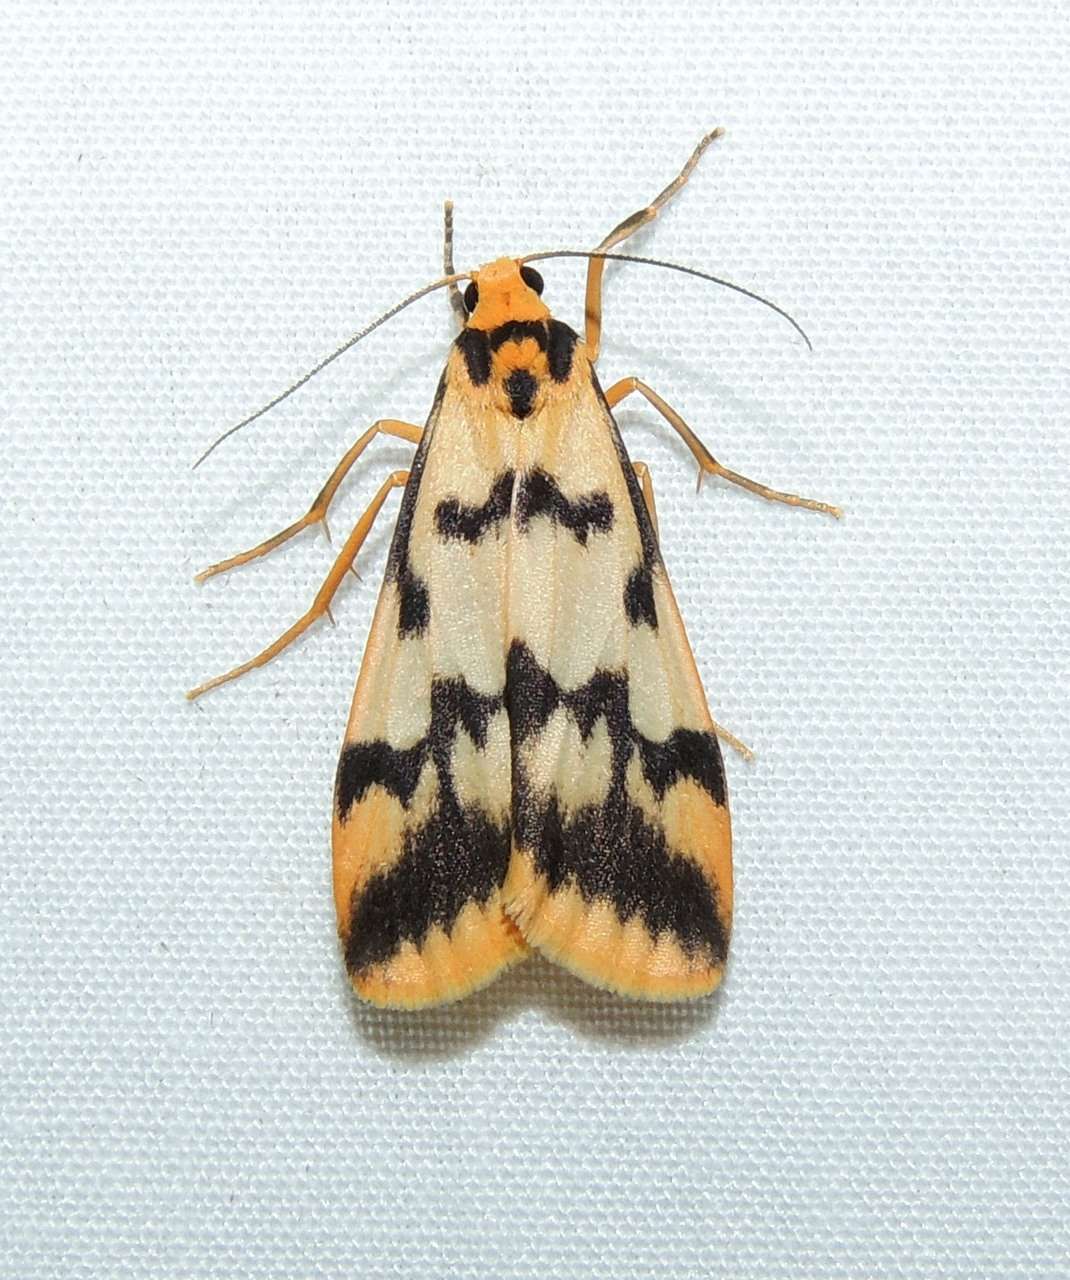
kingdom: Animalia
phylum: Arthropoda
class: Insecta
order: Lepidoptera
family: Erebidae
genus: Tigrioides
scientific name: Tigrioides alterna
